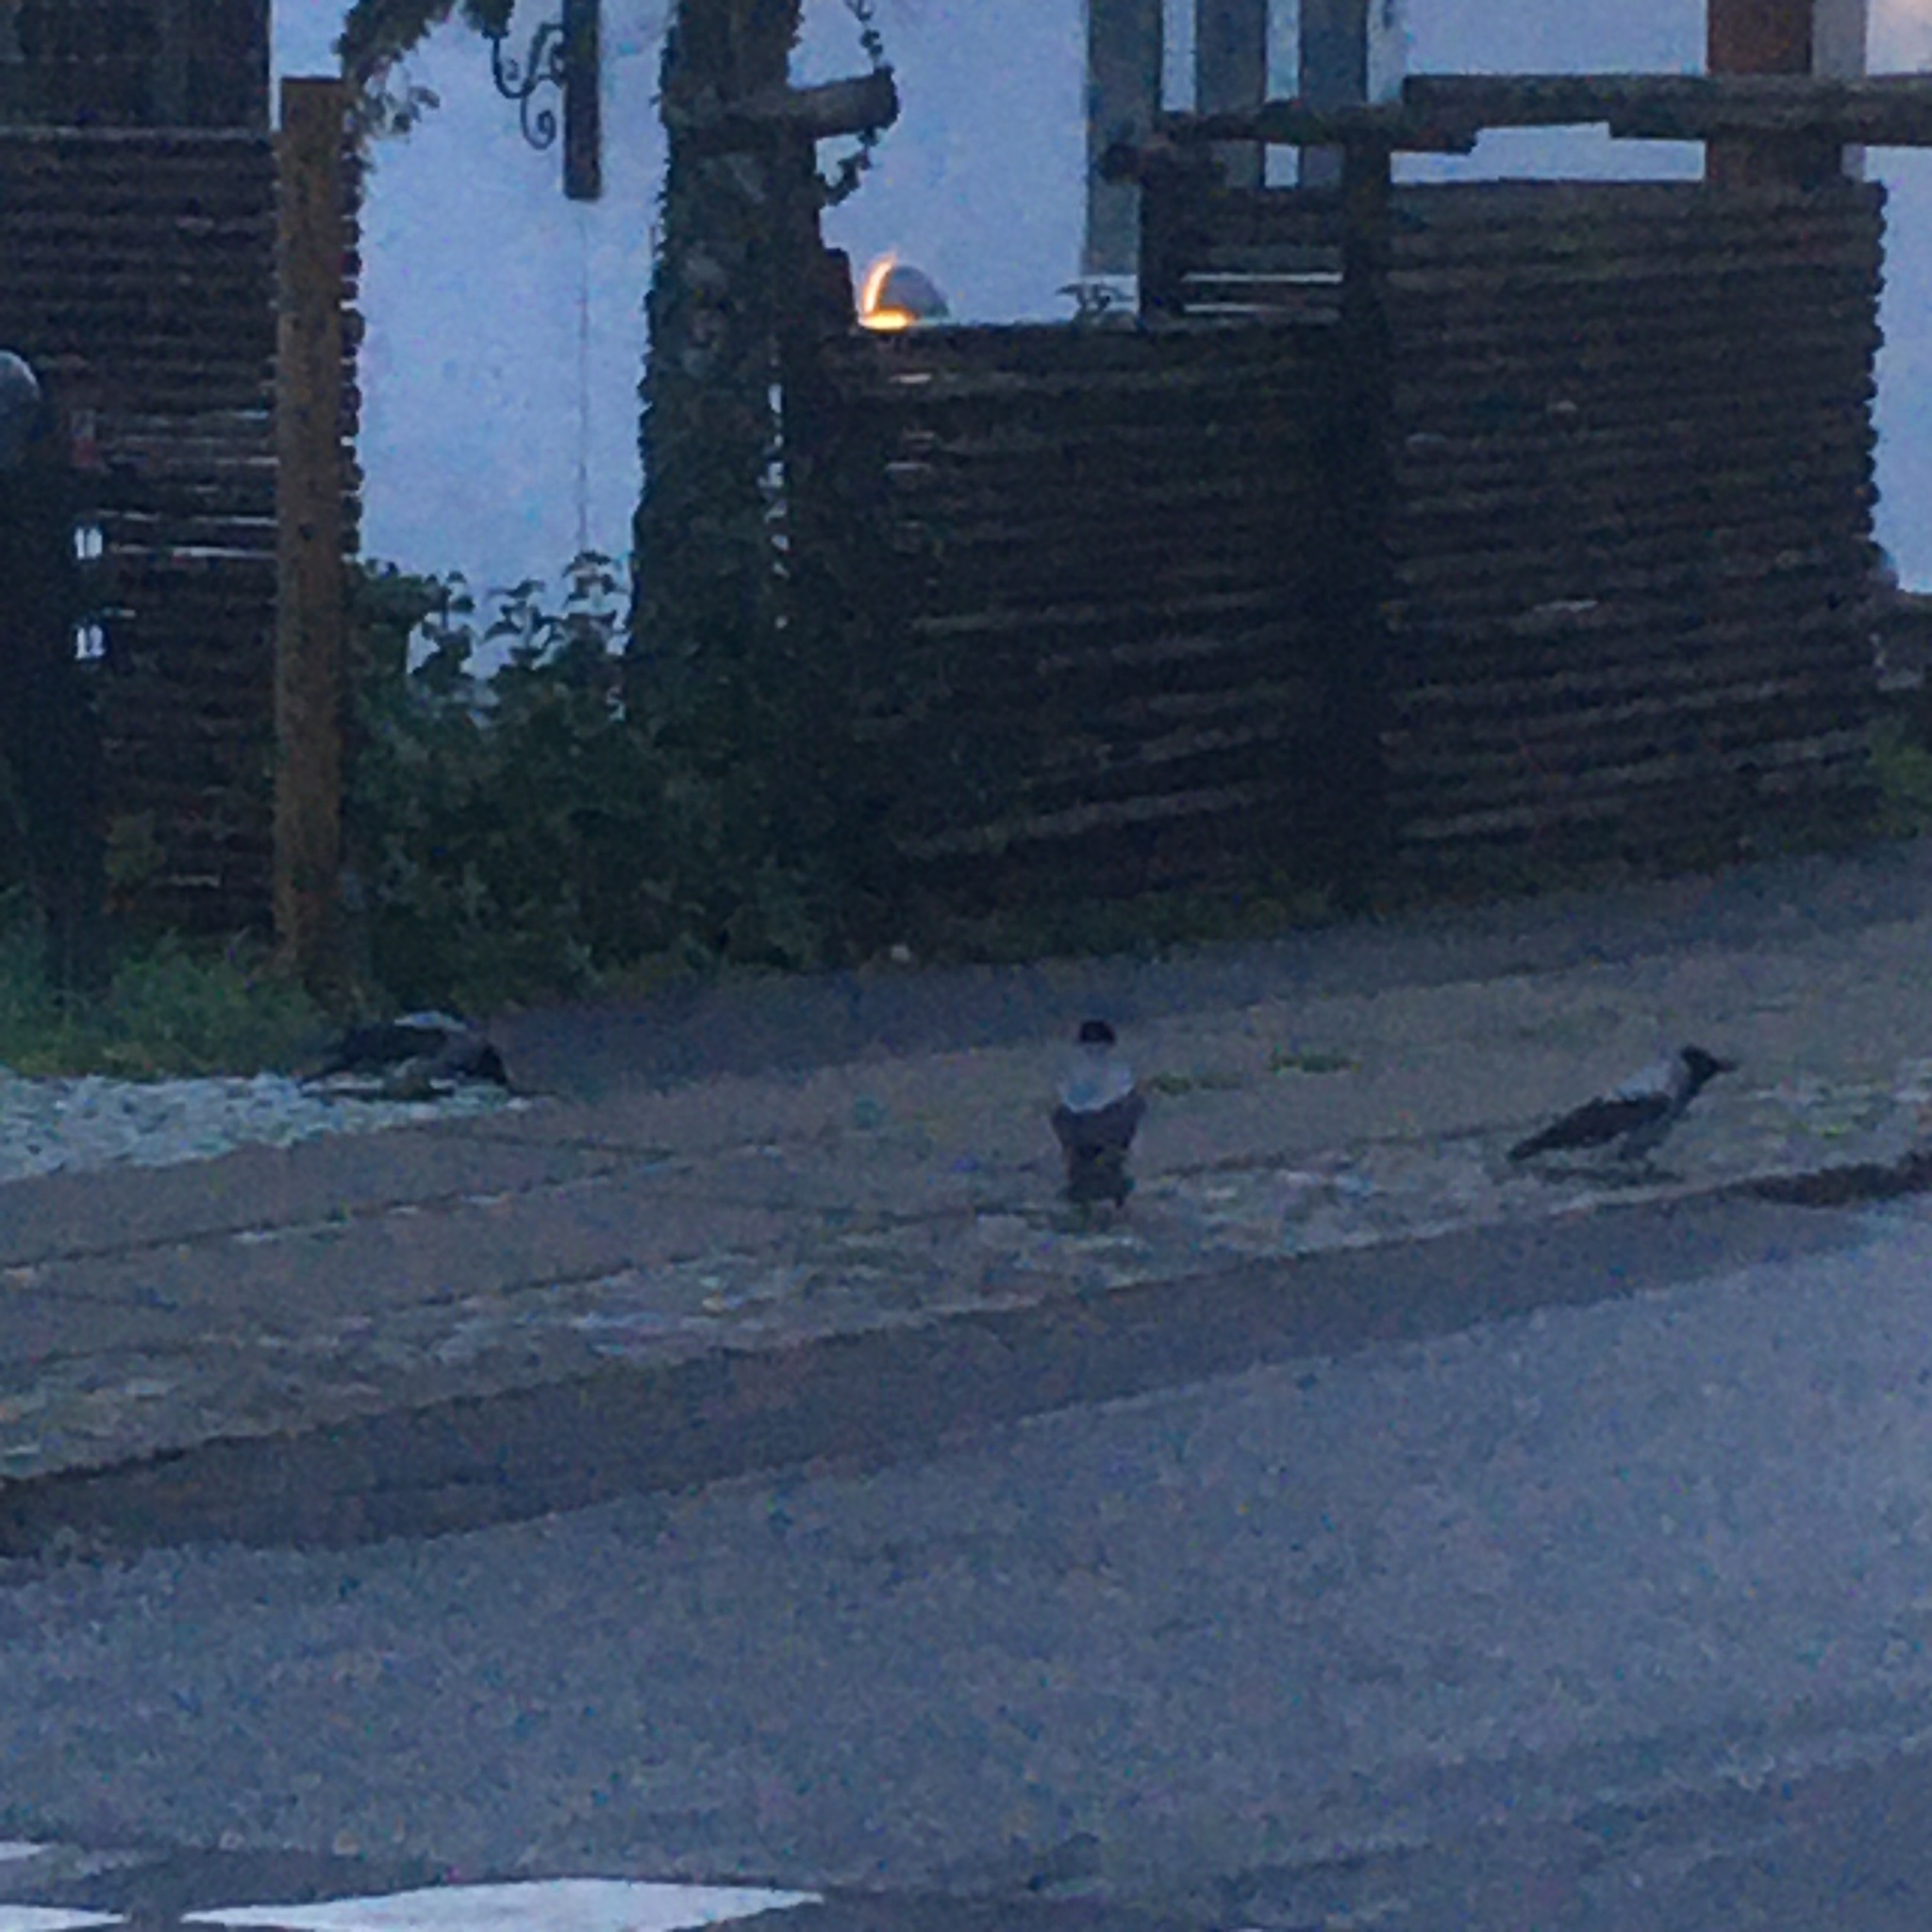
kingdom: Animalia
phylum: Chordata
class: Aves
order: Passeriformes
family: Corvidae
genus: Corvus
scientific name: Corvus cornix
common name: Hooded crow
